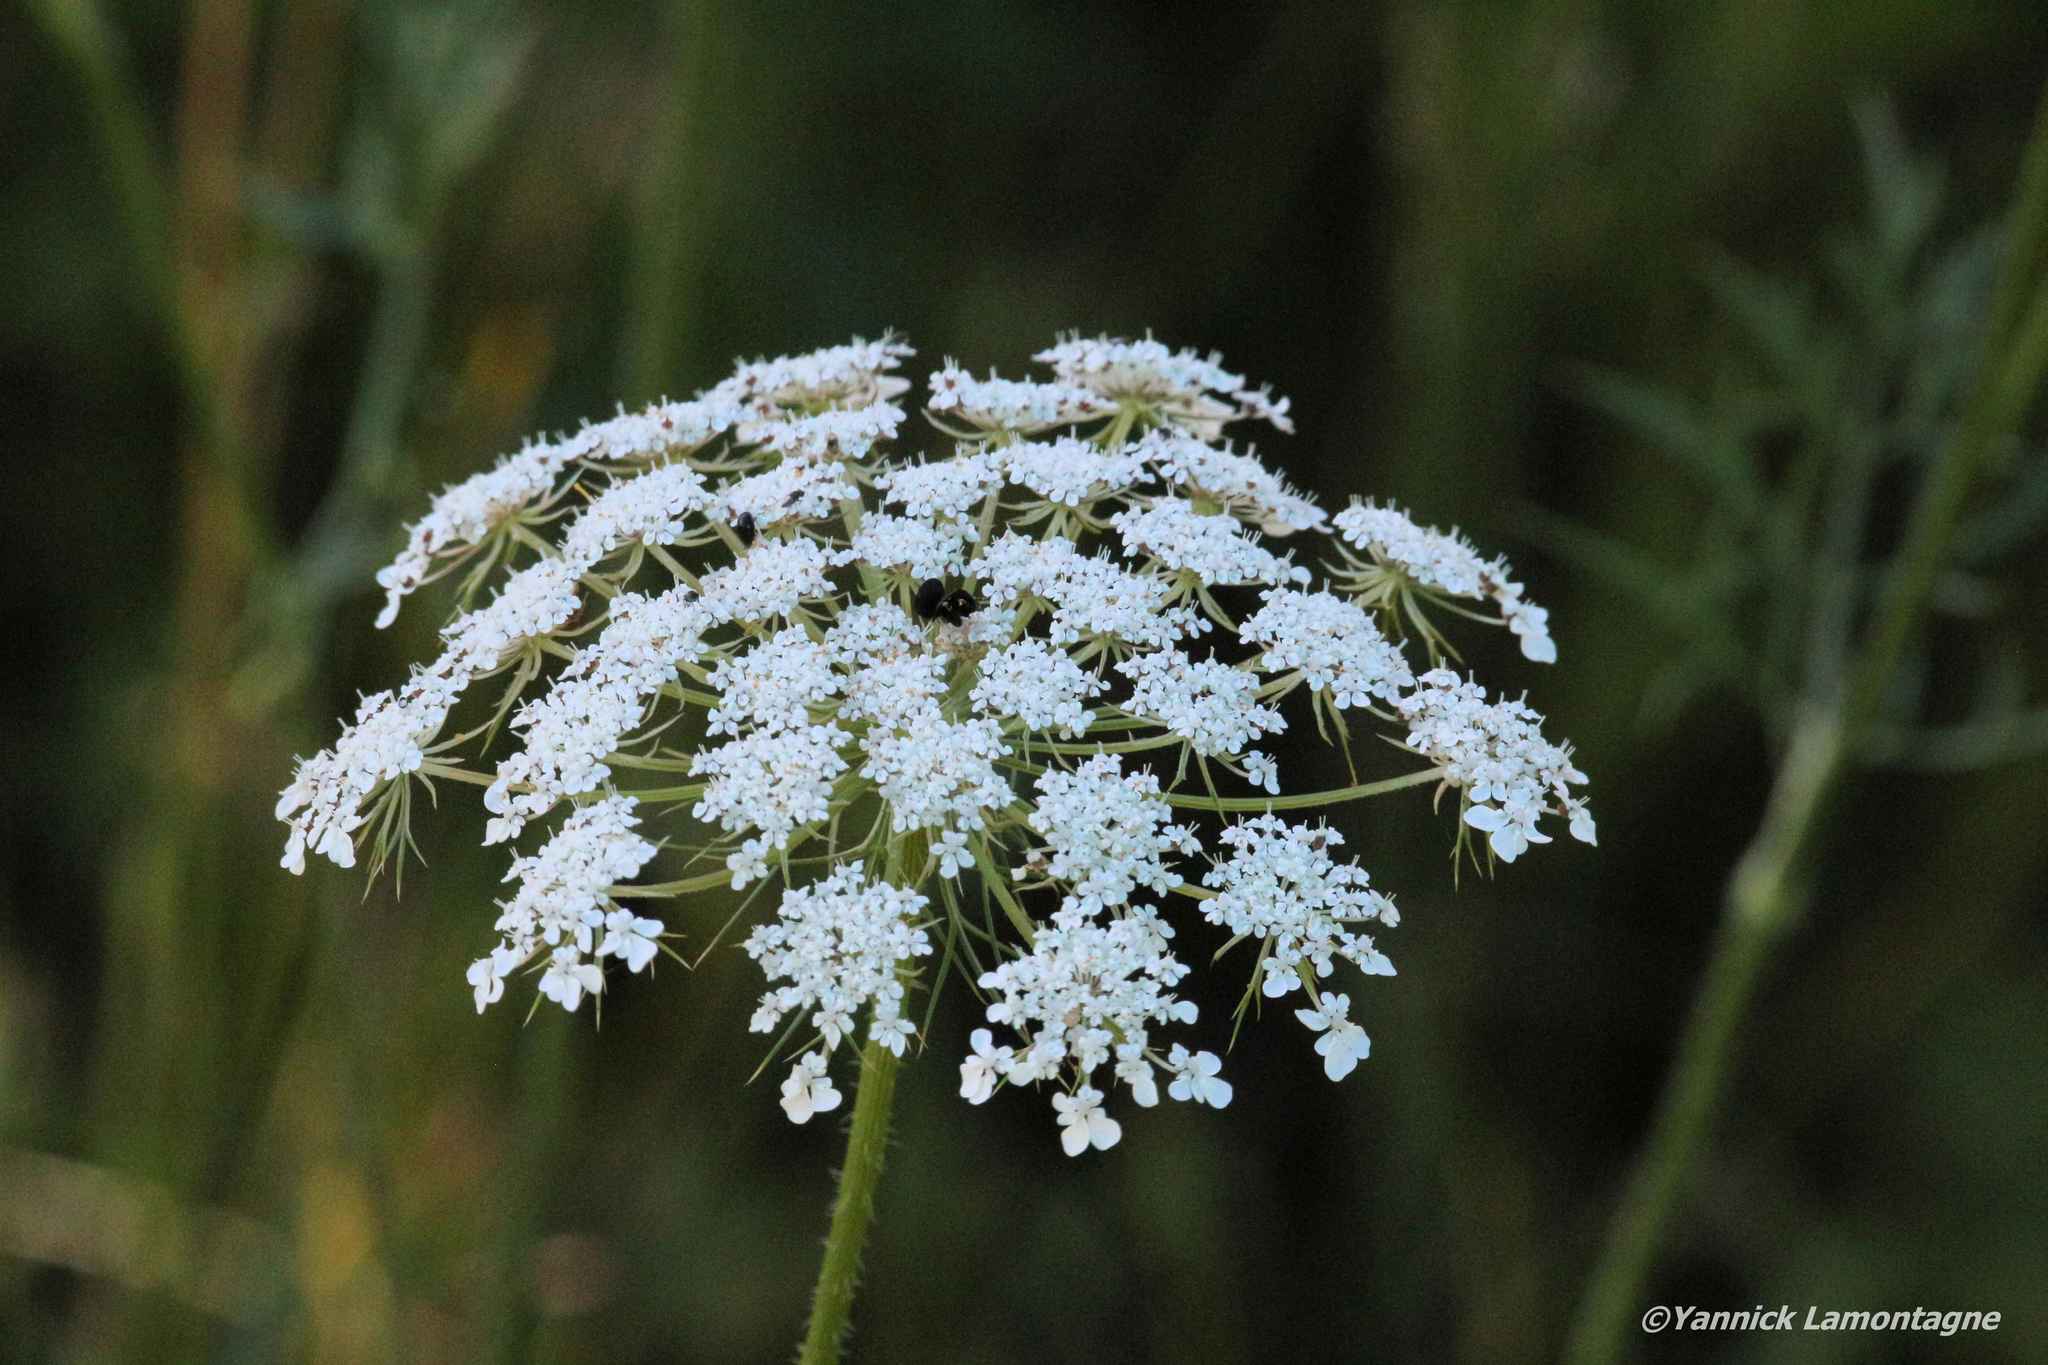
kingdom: Plantae
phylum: Tracheophyta
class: Magnoliopsida
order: Apiales
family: Apiaceae
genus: Daucus
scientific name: Daucus carota
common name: Wild carrot
